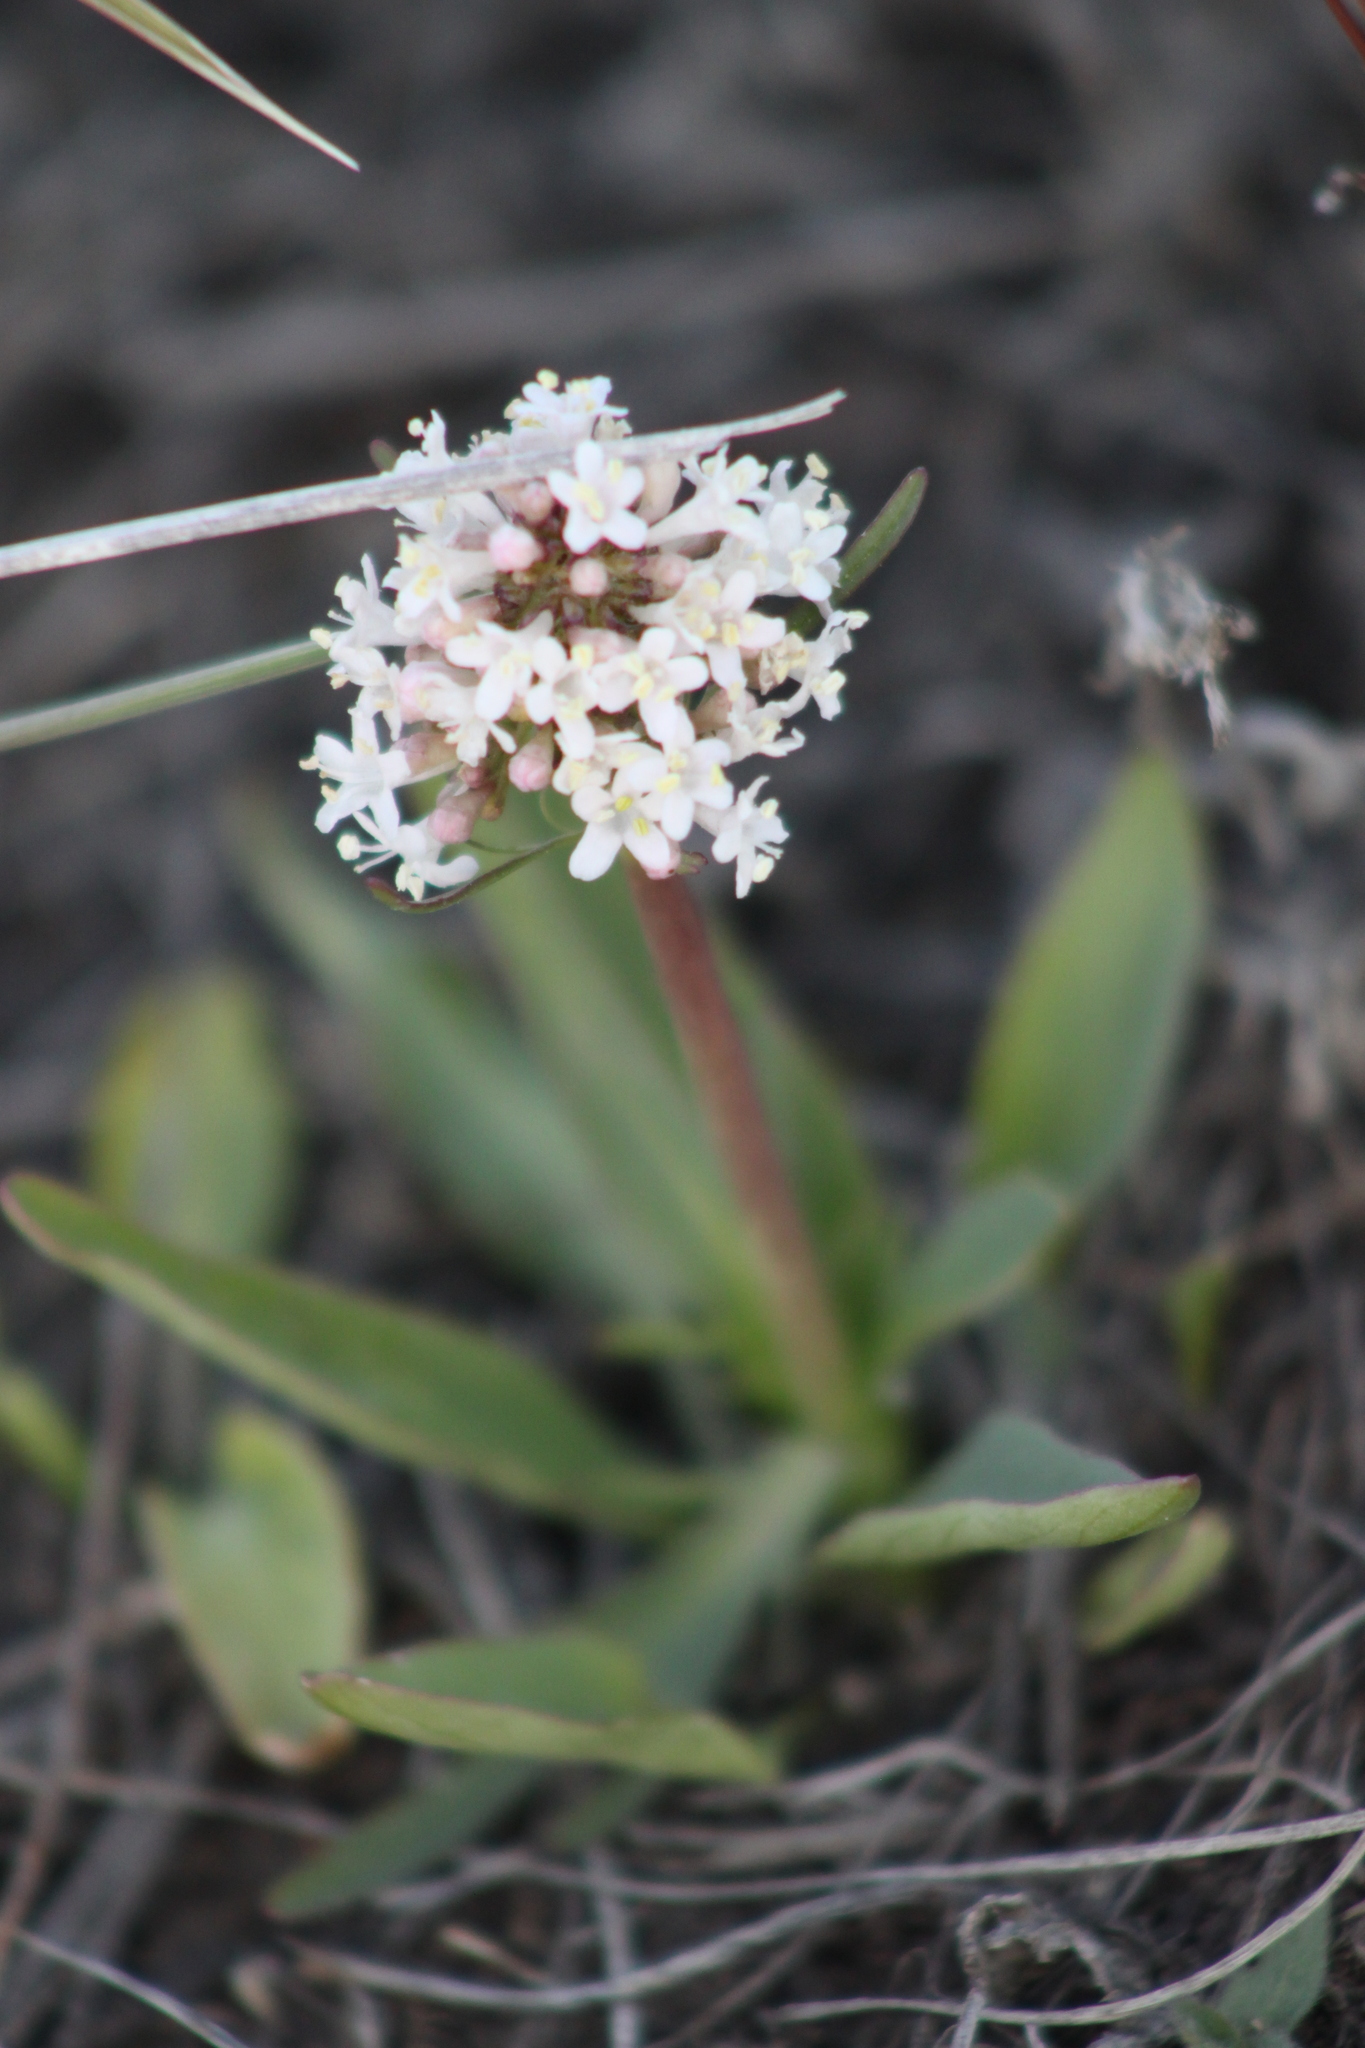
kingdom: Plantae
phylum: Tracheophyta
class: Magnoliopsida
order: Dipsacales
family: Caprifoliaceae
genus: Valeriana
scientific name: Valeriana tuberosa
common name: Tuberous valerian
